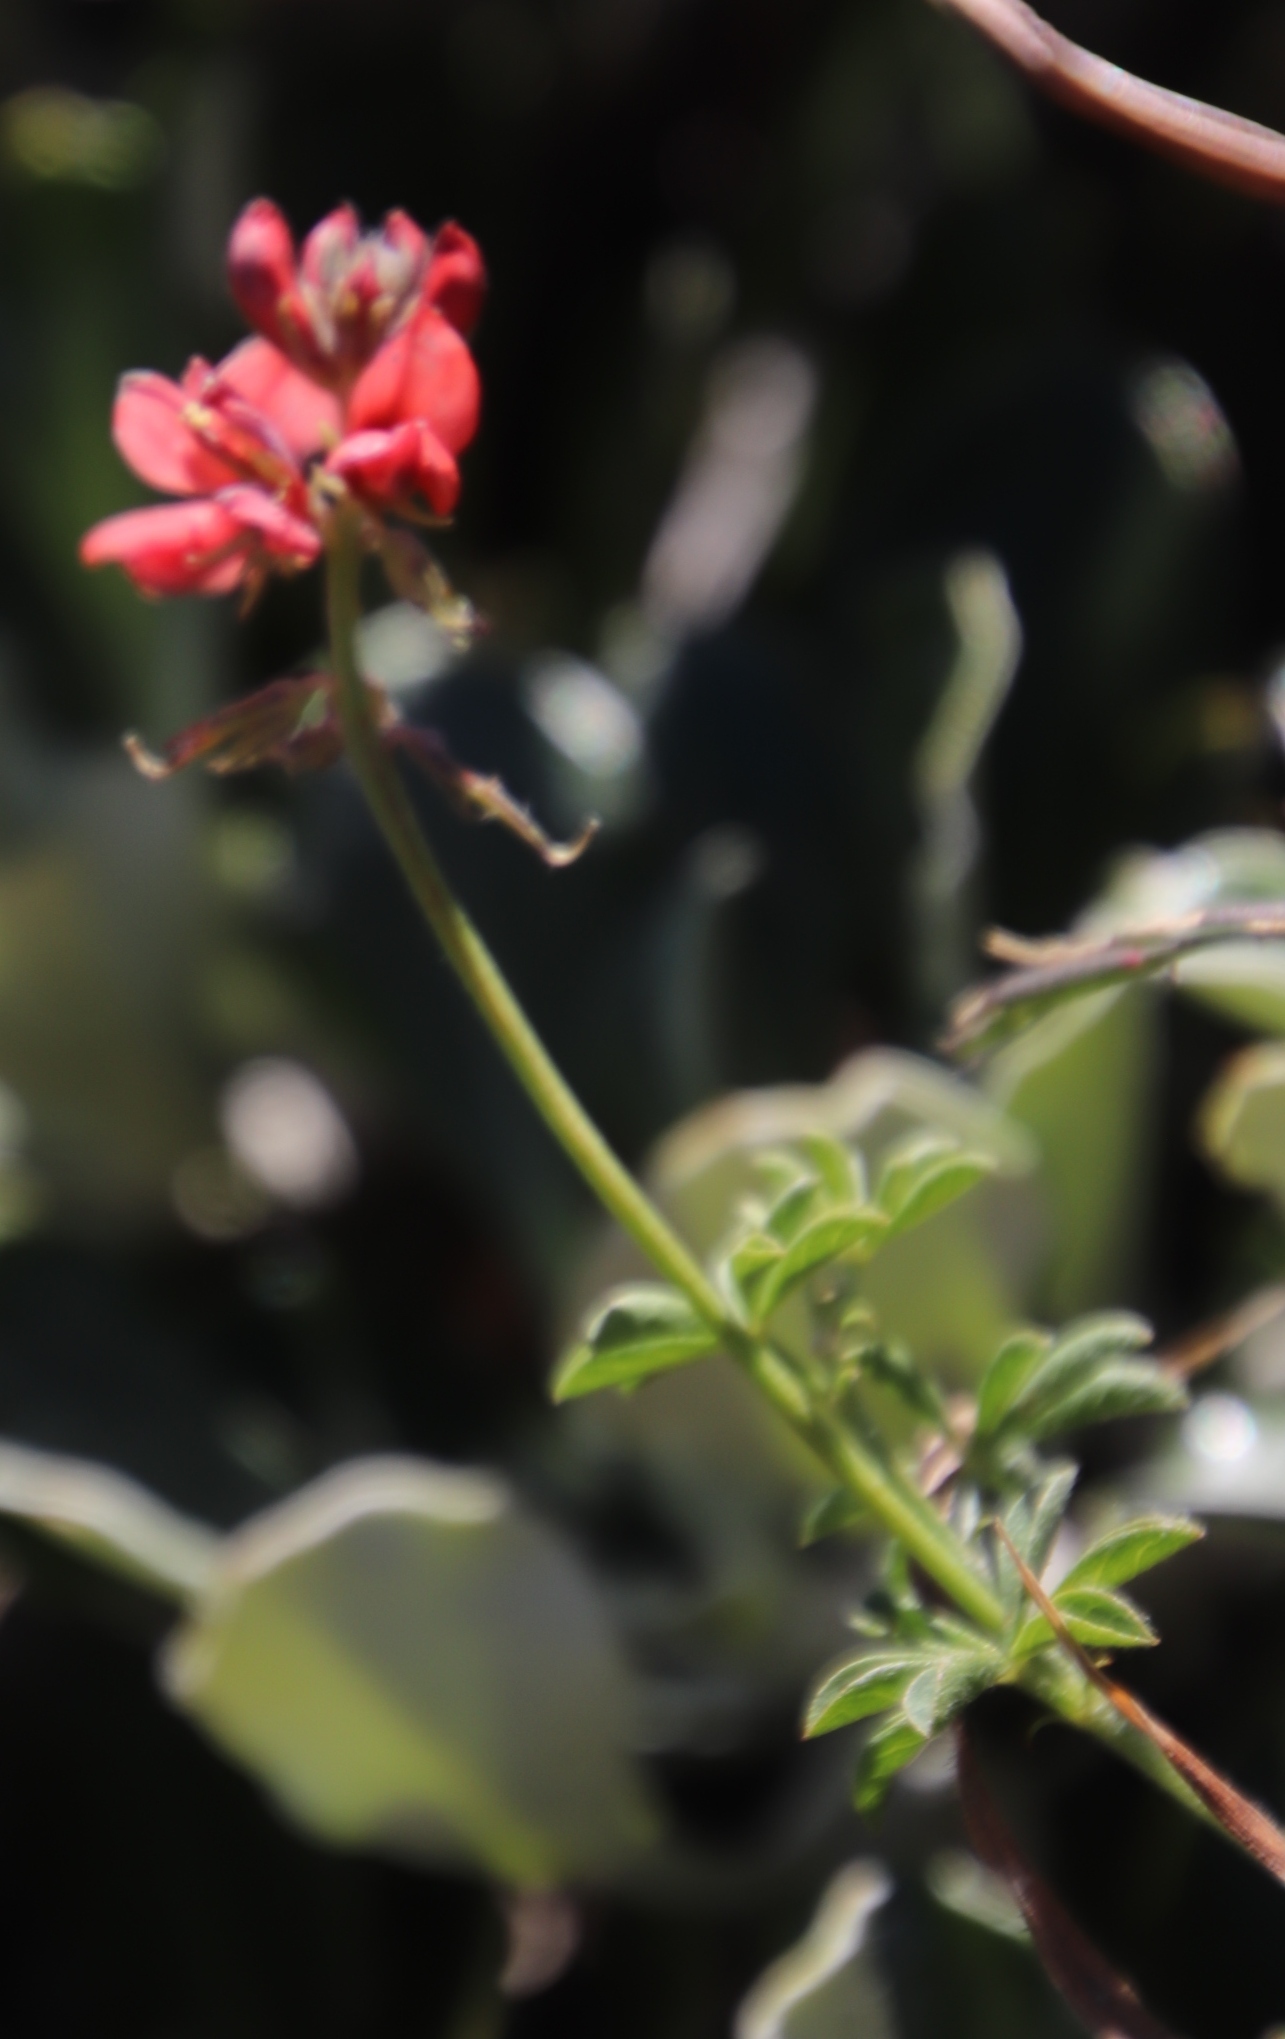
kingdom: Plantae
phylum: Tracheophyta
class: Magnoliopsida
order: Fabales
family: Fabaceae
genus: Indigofera
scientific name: Indigofera digitata
